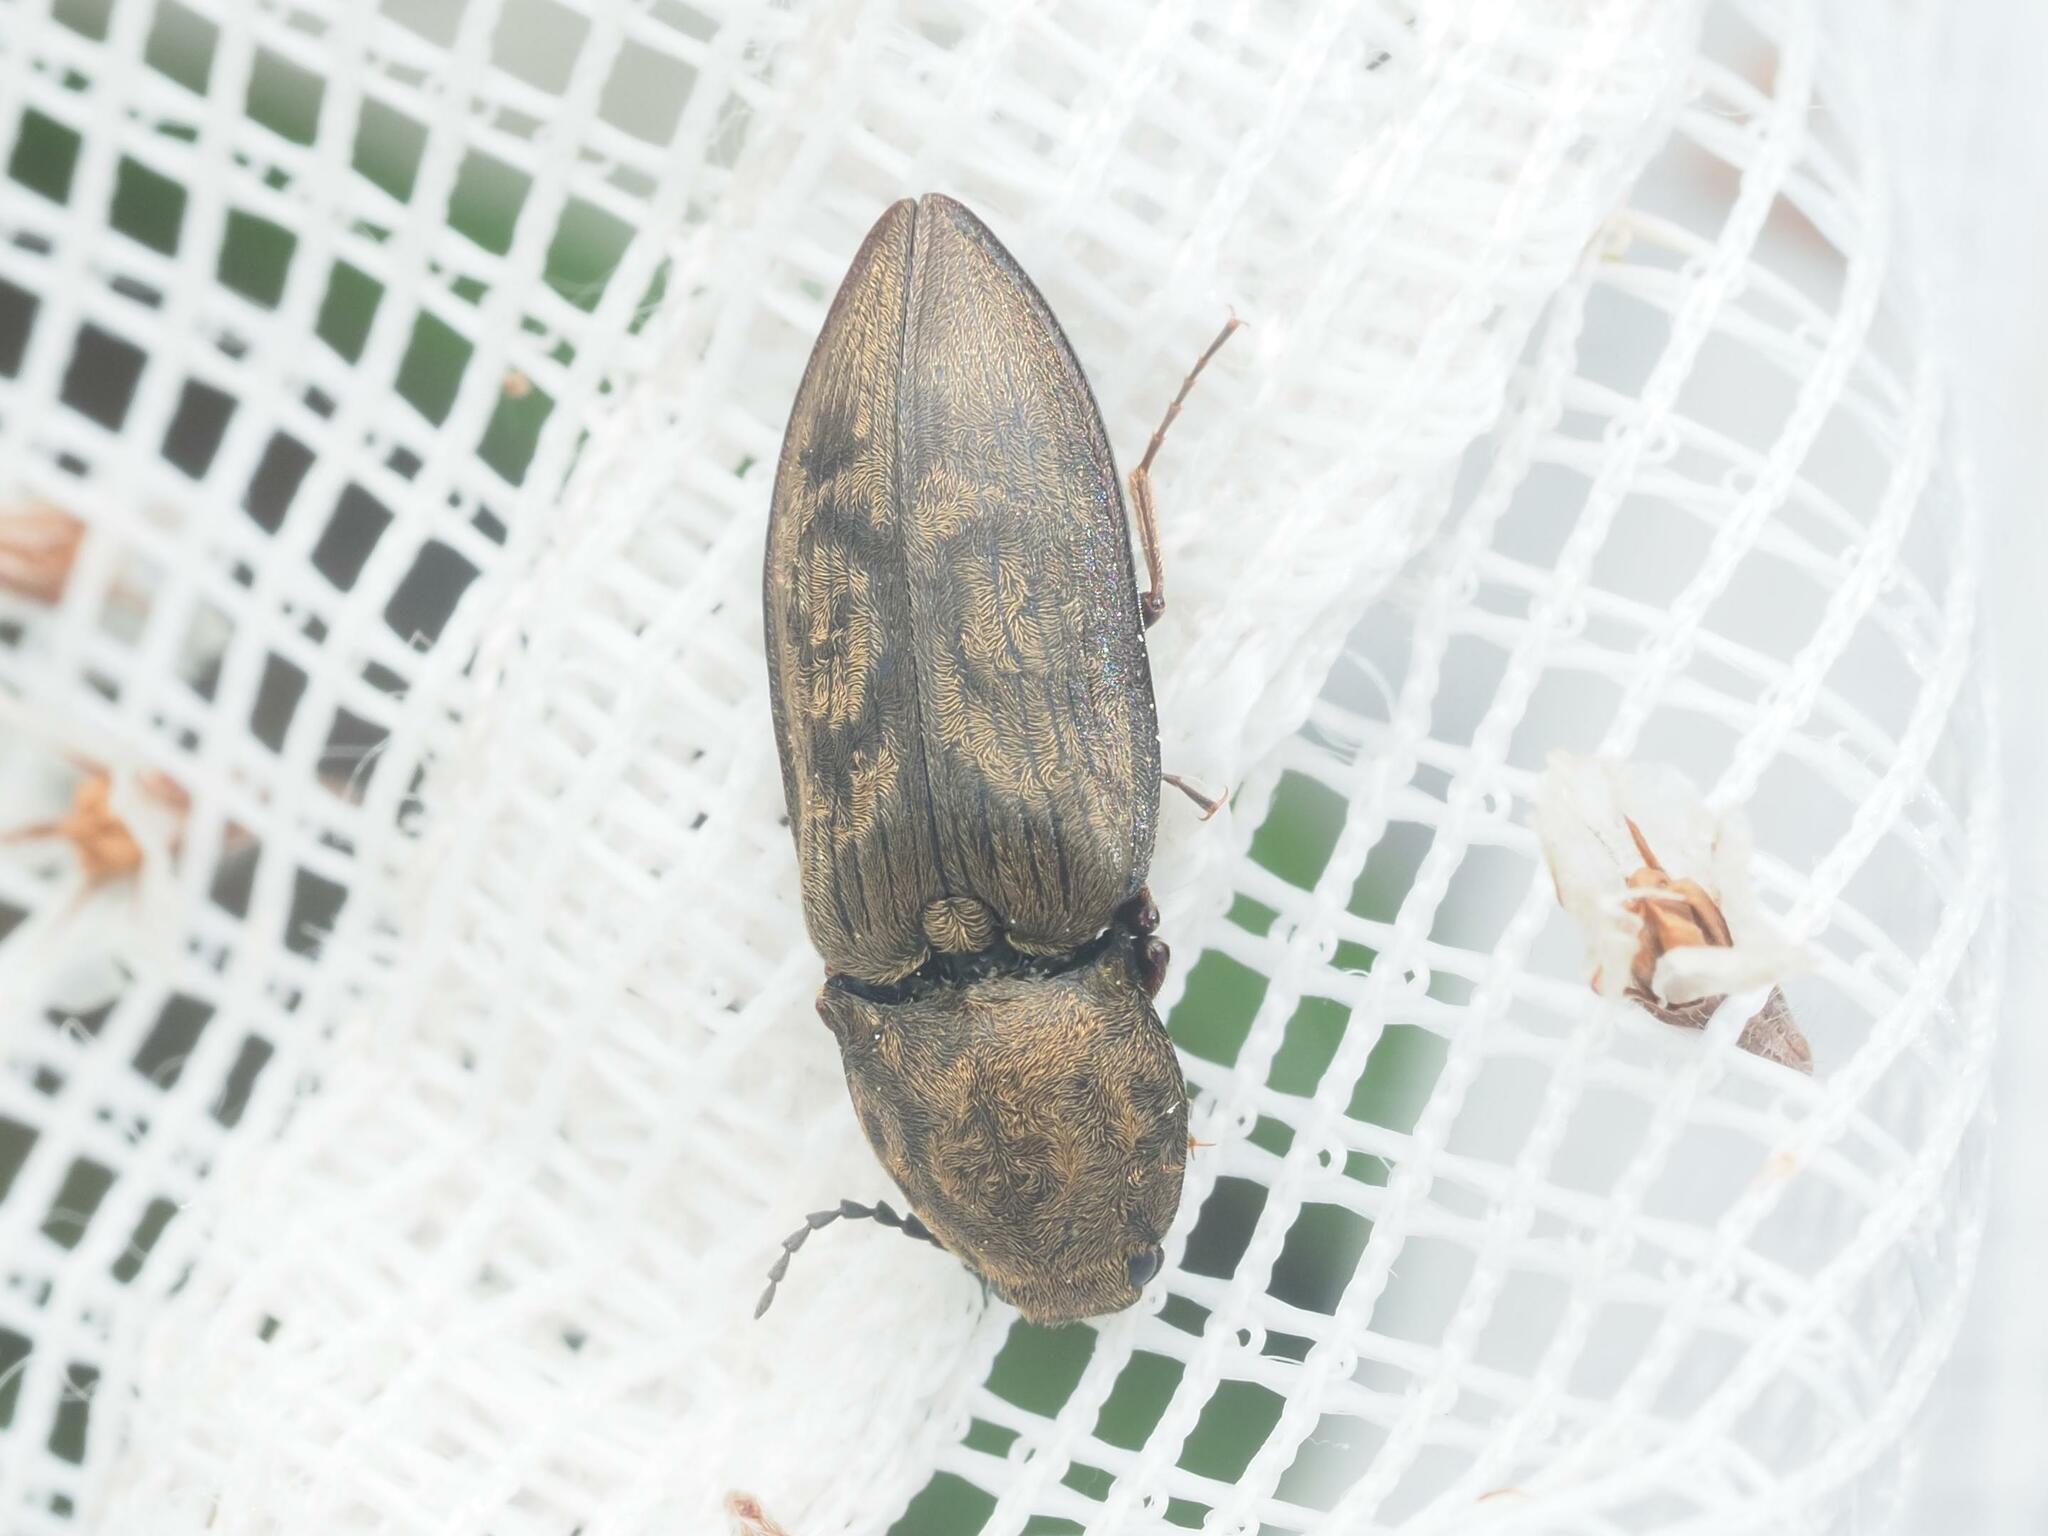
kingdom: Animalia
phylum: Arthropoda
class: Insecta
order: Coleoptera
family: Elateridae
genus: Prosternon
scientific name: Prosternon tessellatum
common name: Chequered click beetle
